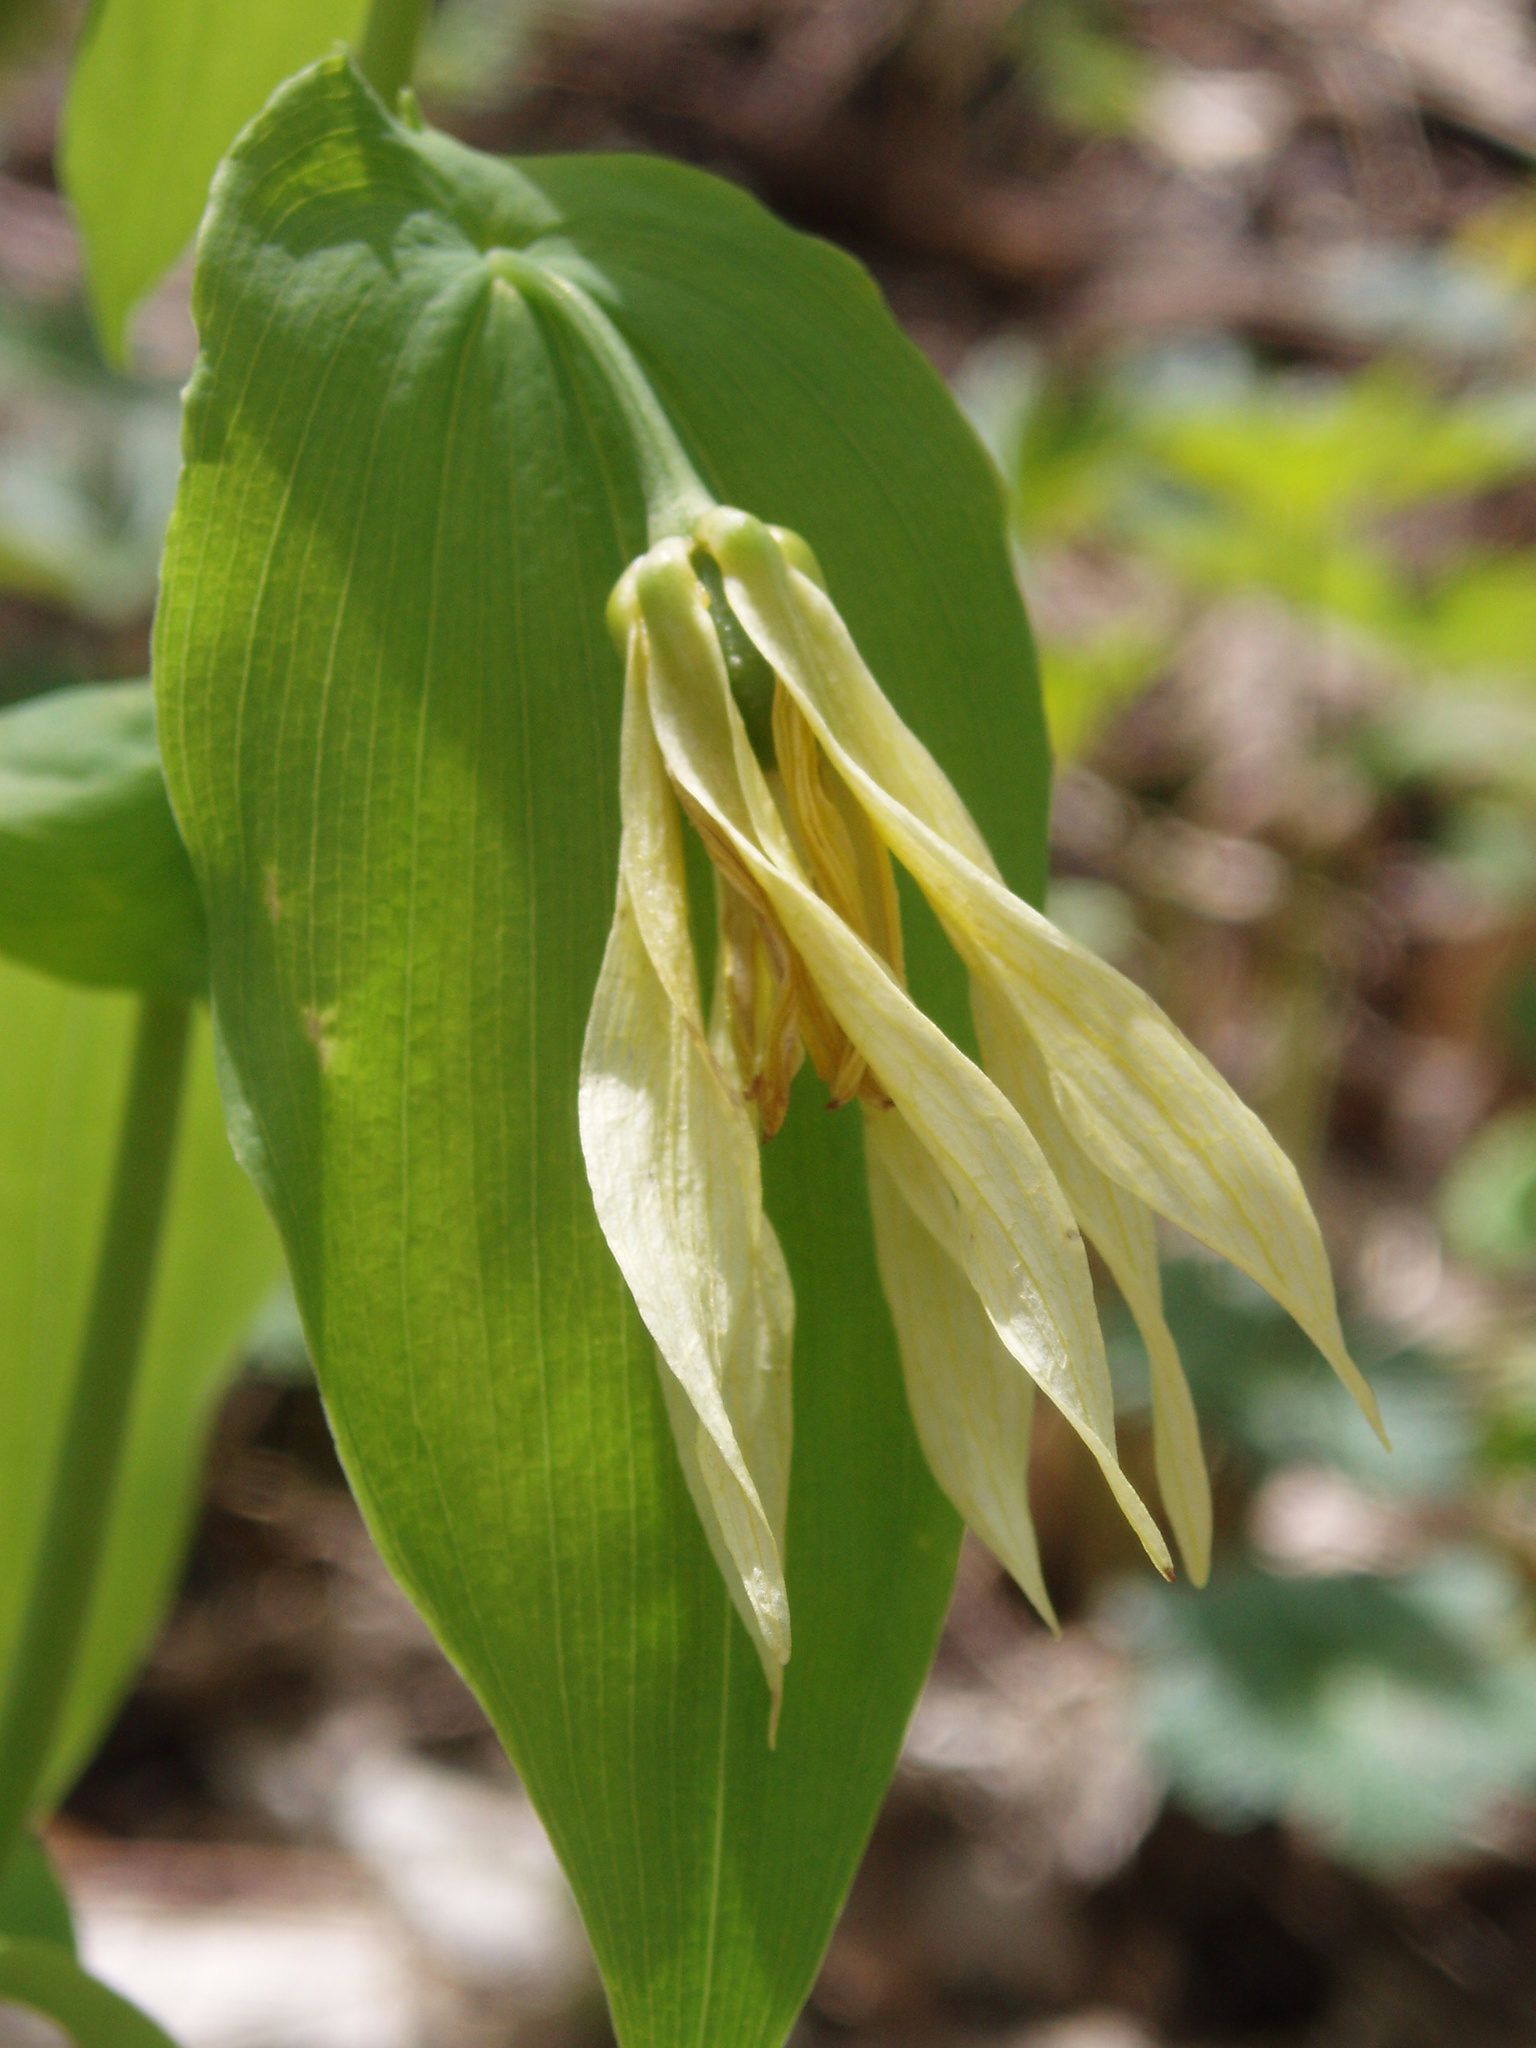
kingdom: Plantae
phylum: Tracheophyta
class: Liliopsida
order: Liliales
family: Colchicaceae
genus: Uvularia
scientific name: Uvularia grandiflora
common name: Bellwort
